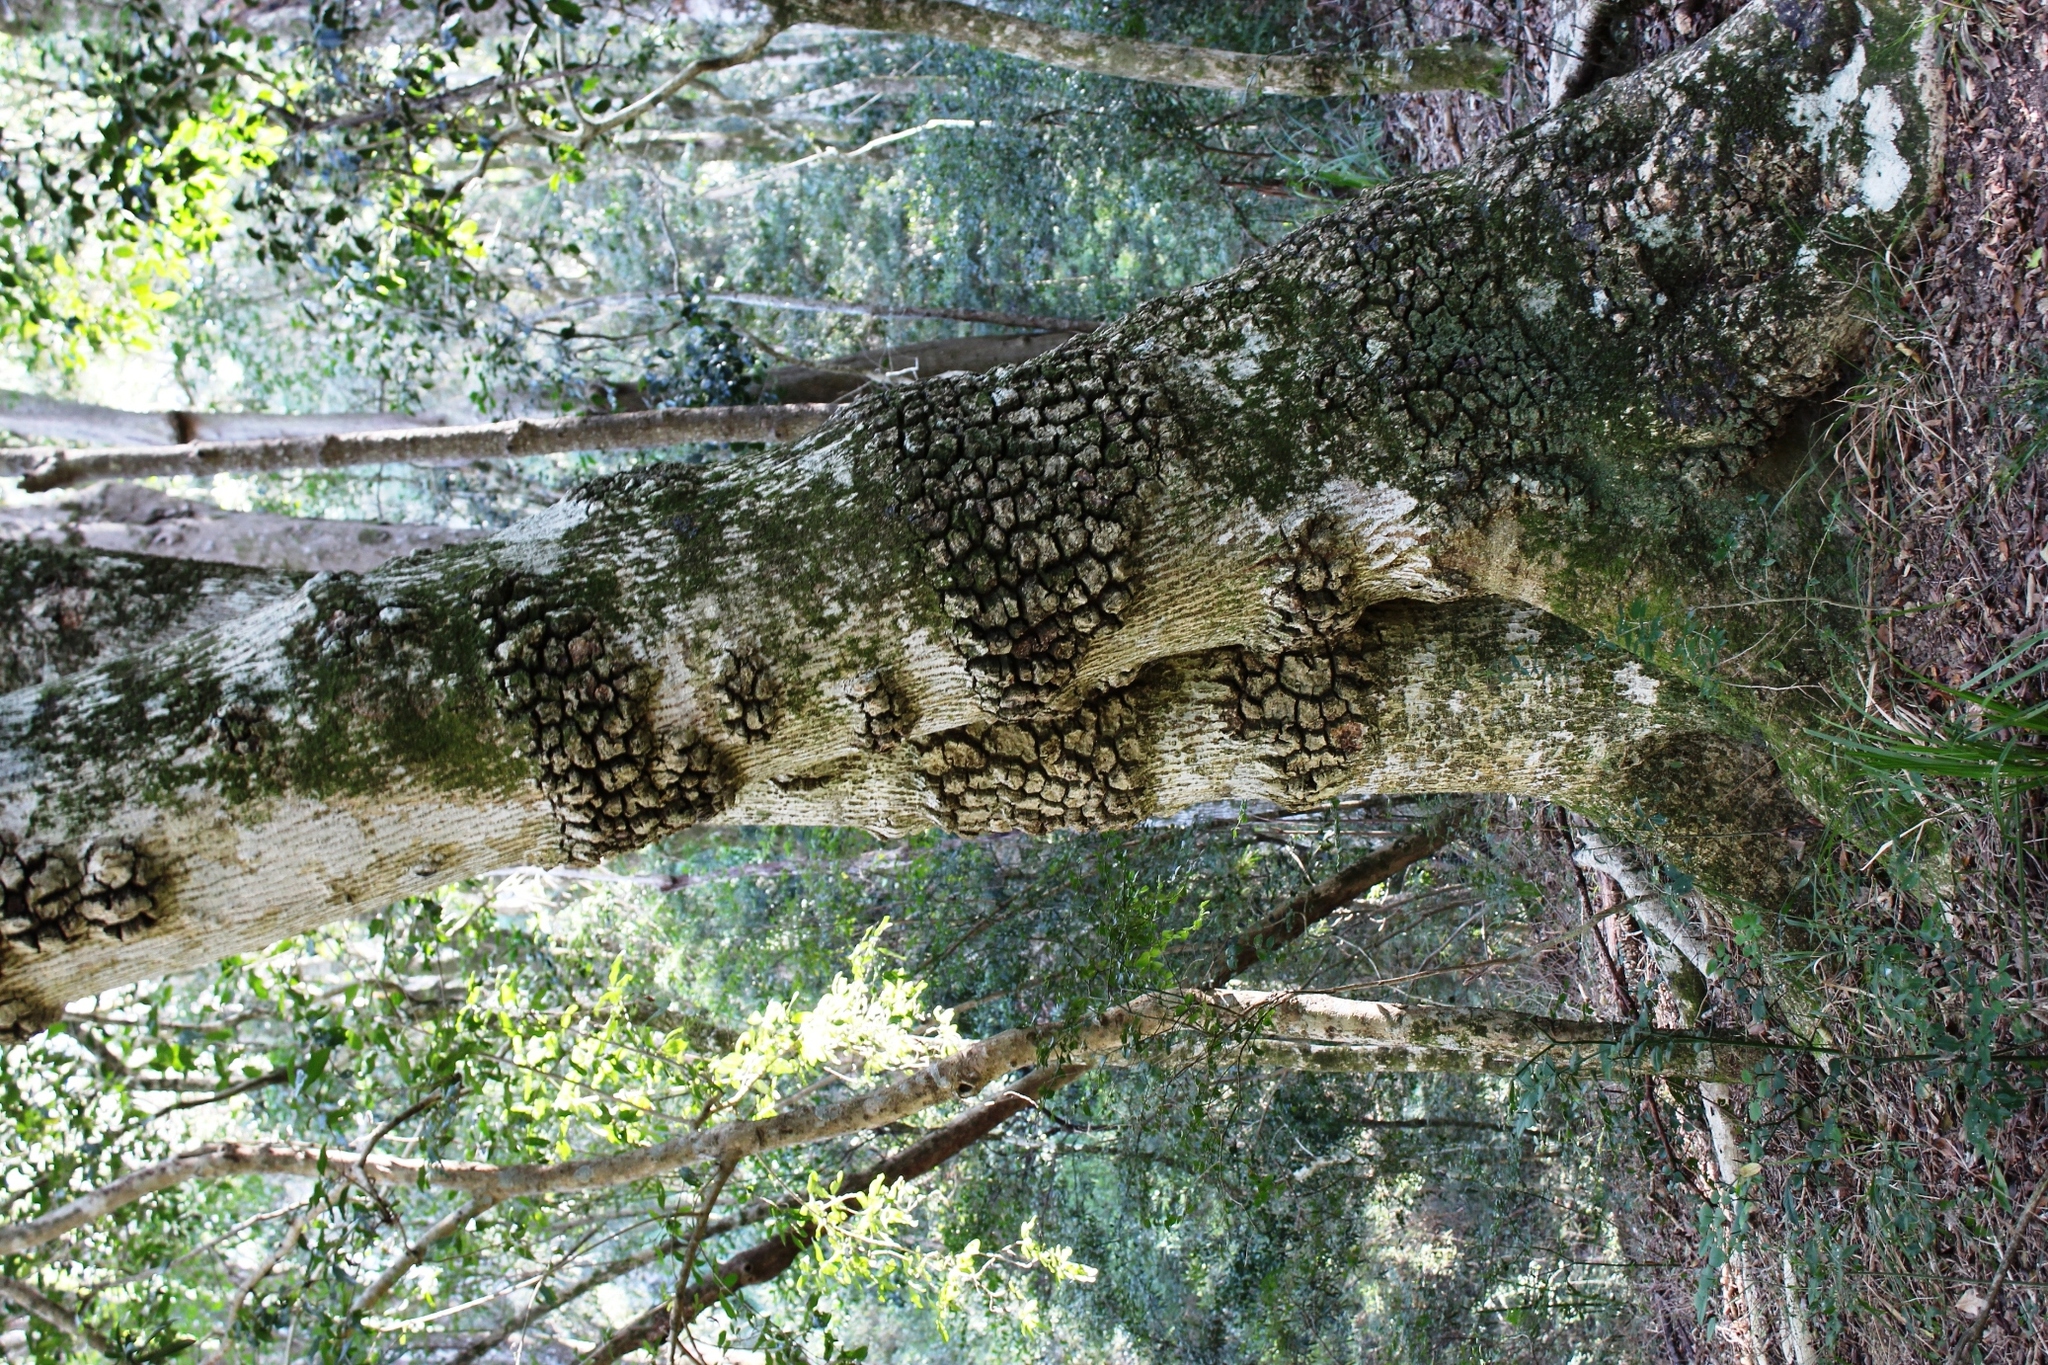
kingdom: Plantae
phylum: Tracheophyta
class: Magnoliopsida
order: Lamiales
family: Oleaceae
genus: Olea
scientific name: Olea capensis
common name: Black ironwood
